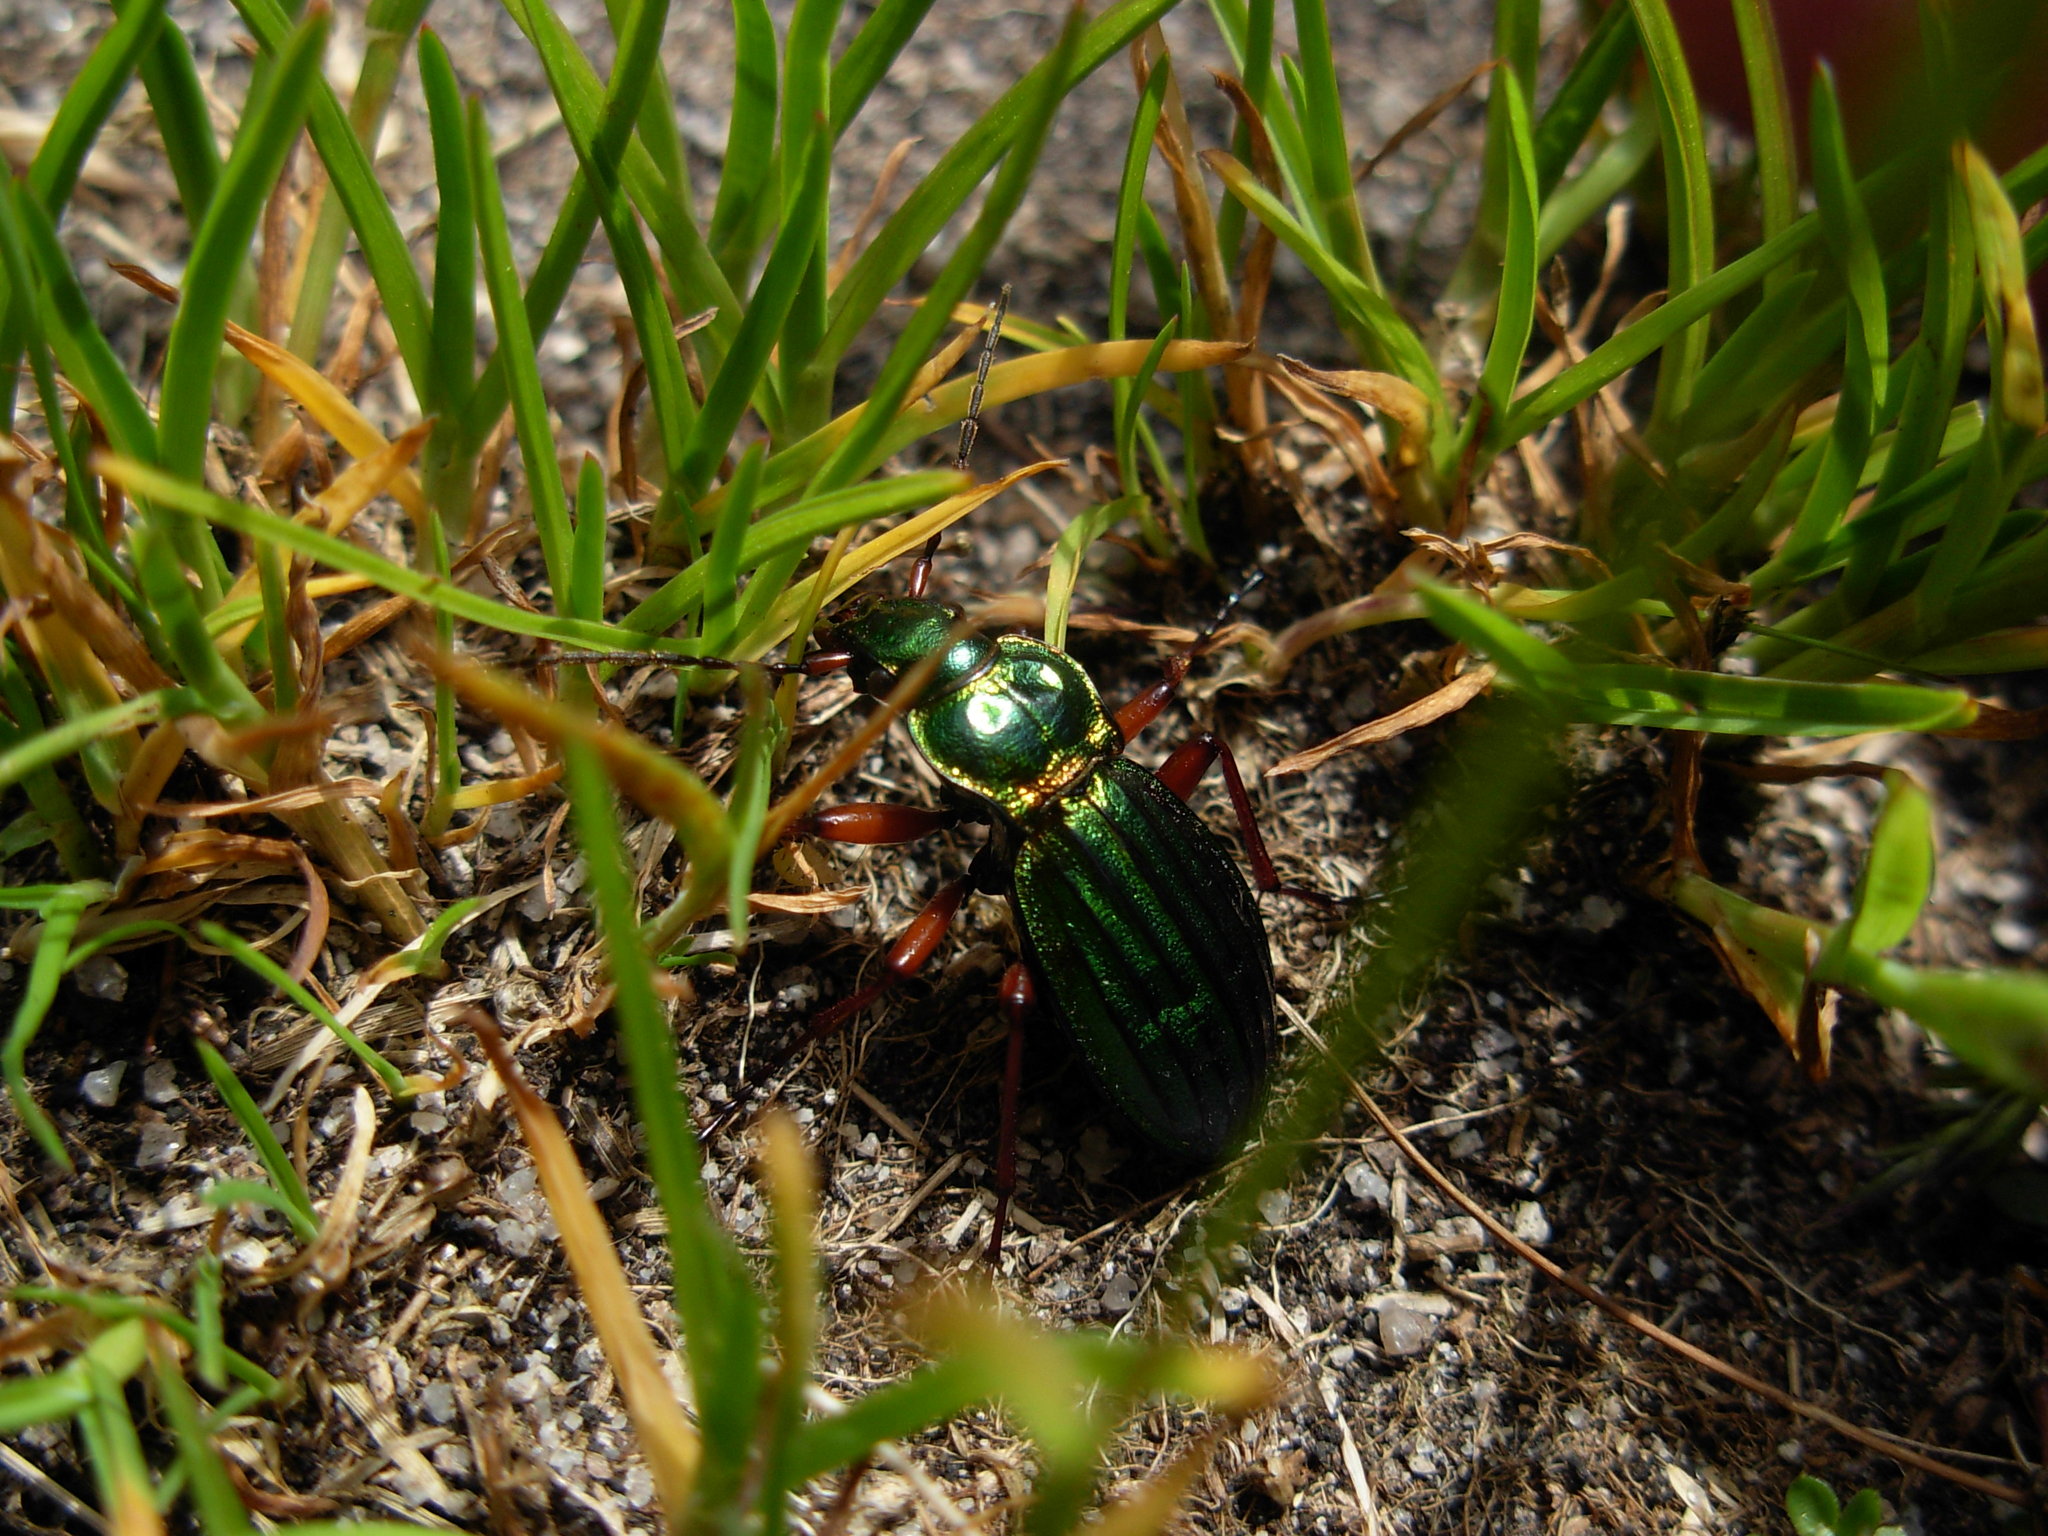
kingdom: Animalia
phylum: Arthropoda
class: Insecta
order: Coleoptera
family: Carabidae
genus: Carabus
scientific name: Carabus auronitens
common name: Carabus auronitens
